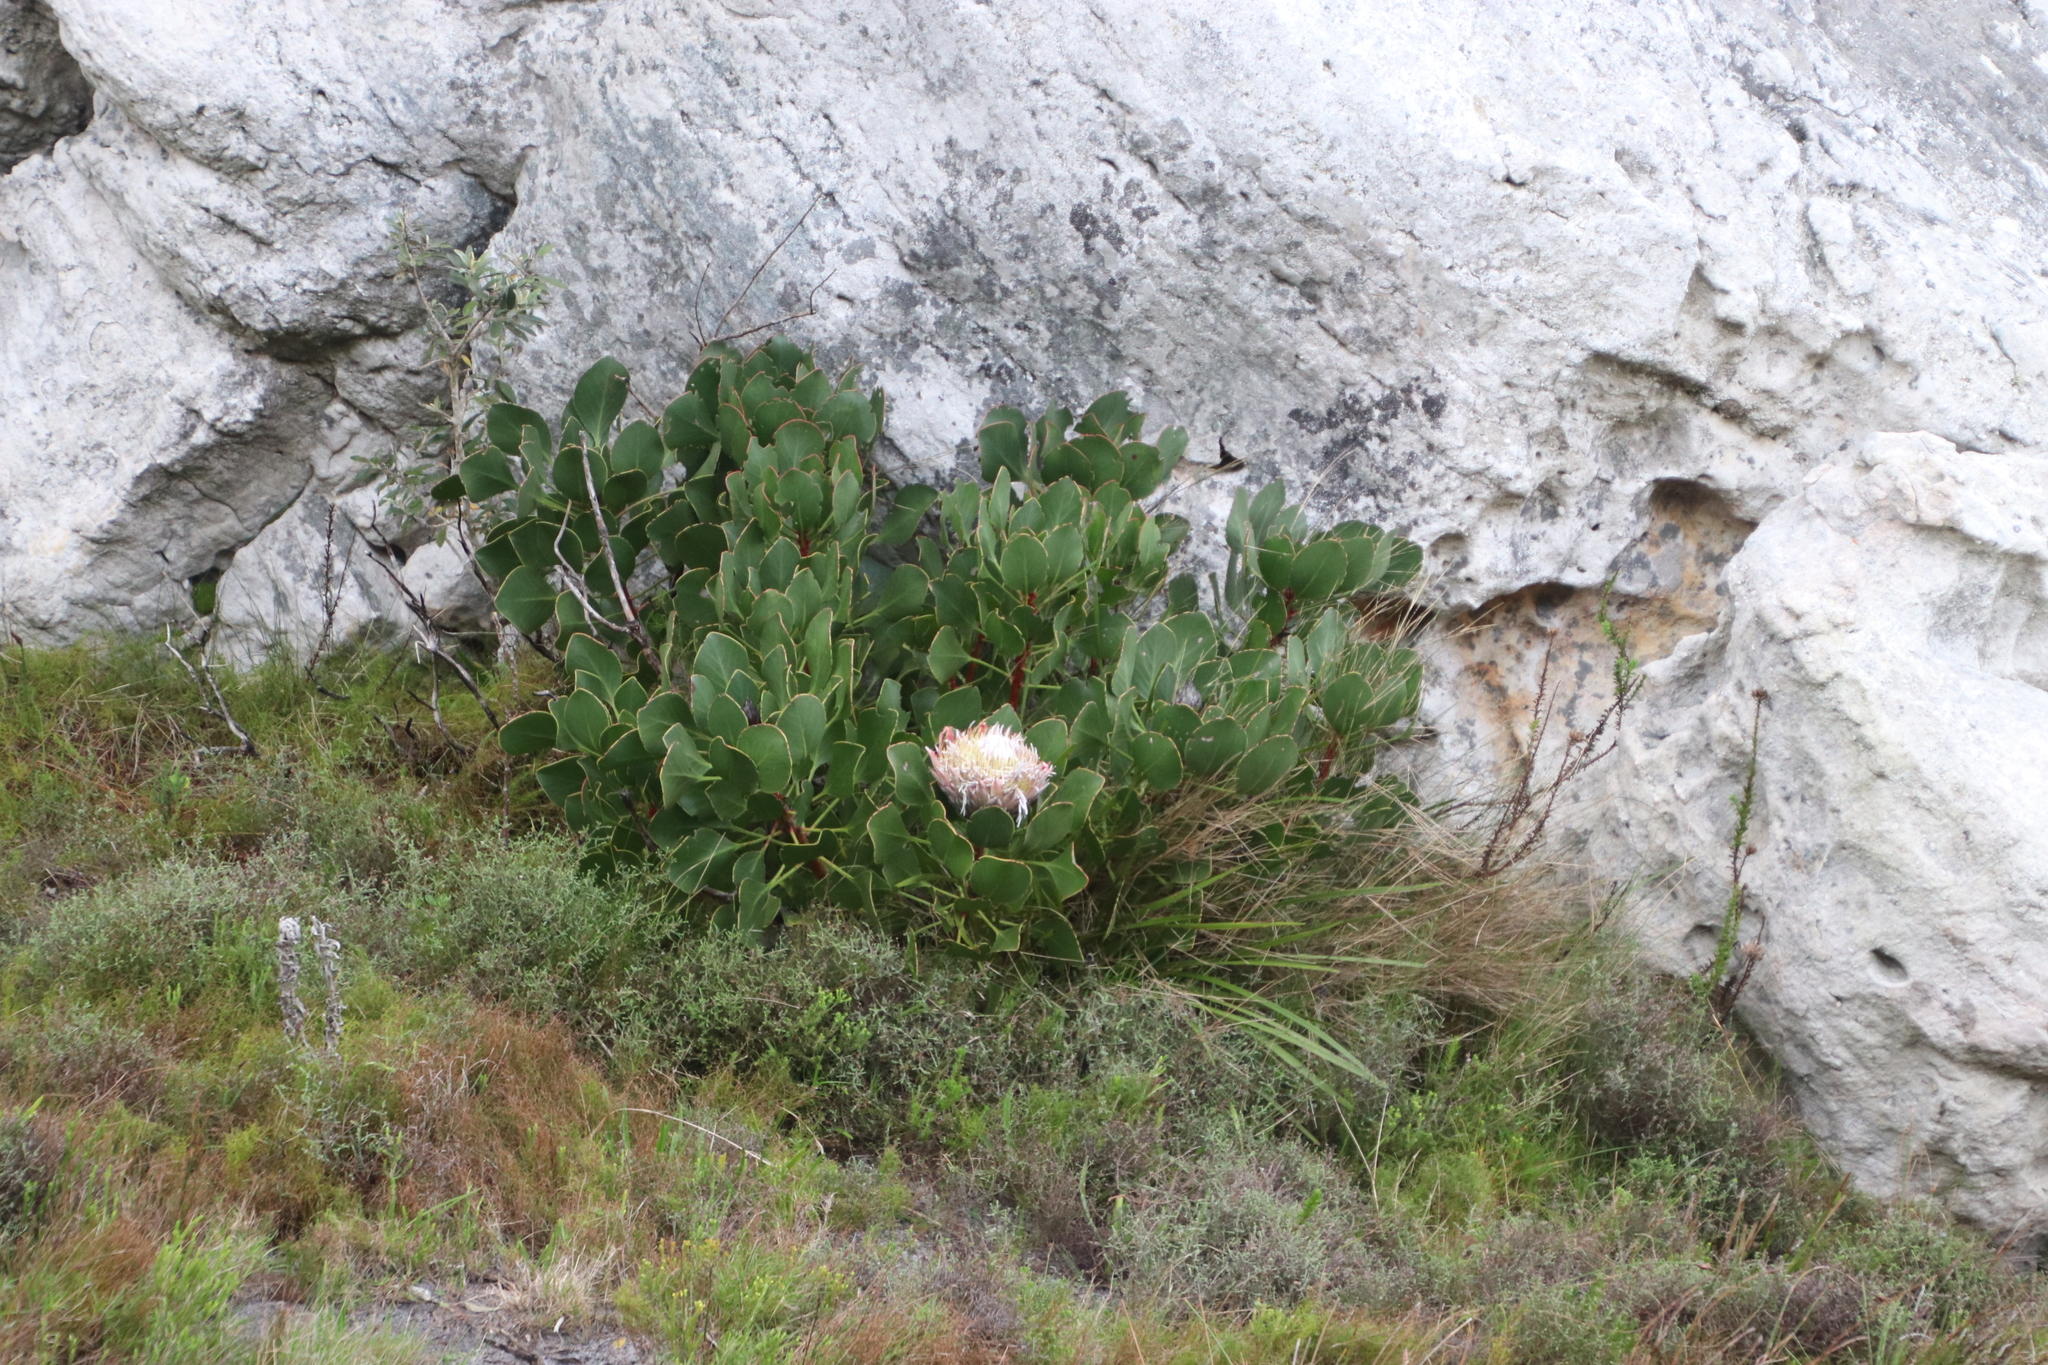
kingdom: Plantae
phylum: Tracheophyta
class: Magnoliopsida
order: Proteales
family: Proteaceae
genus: Protea
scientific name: Protea cynaroides
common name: King protea
